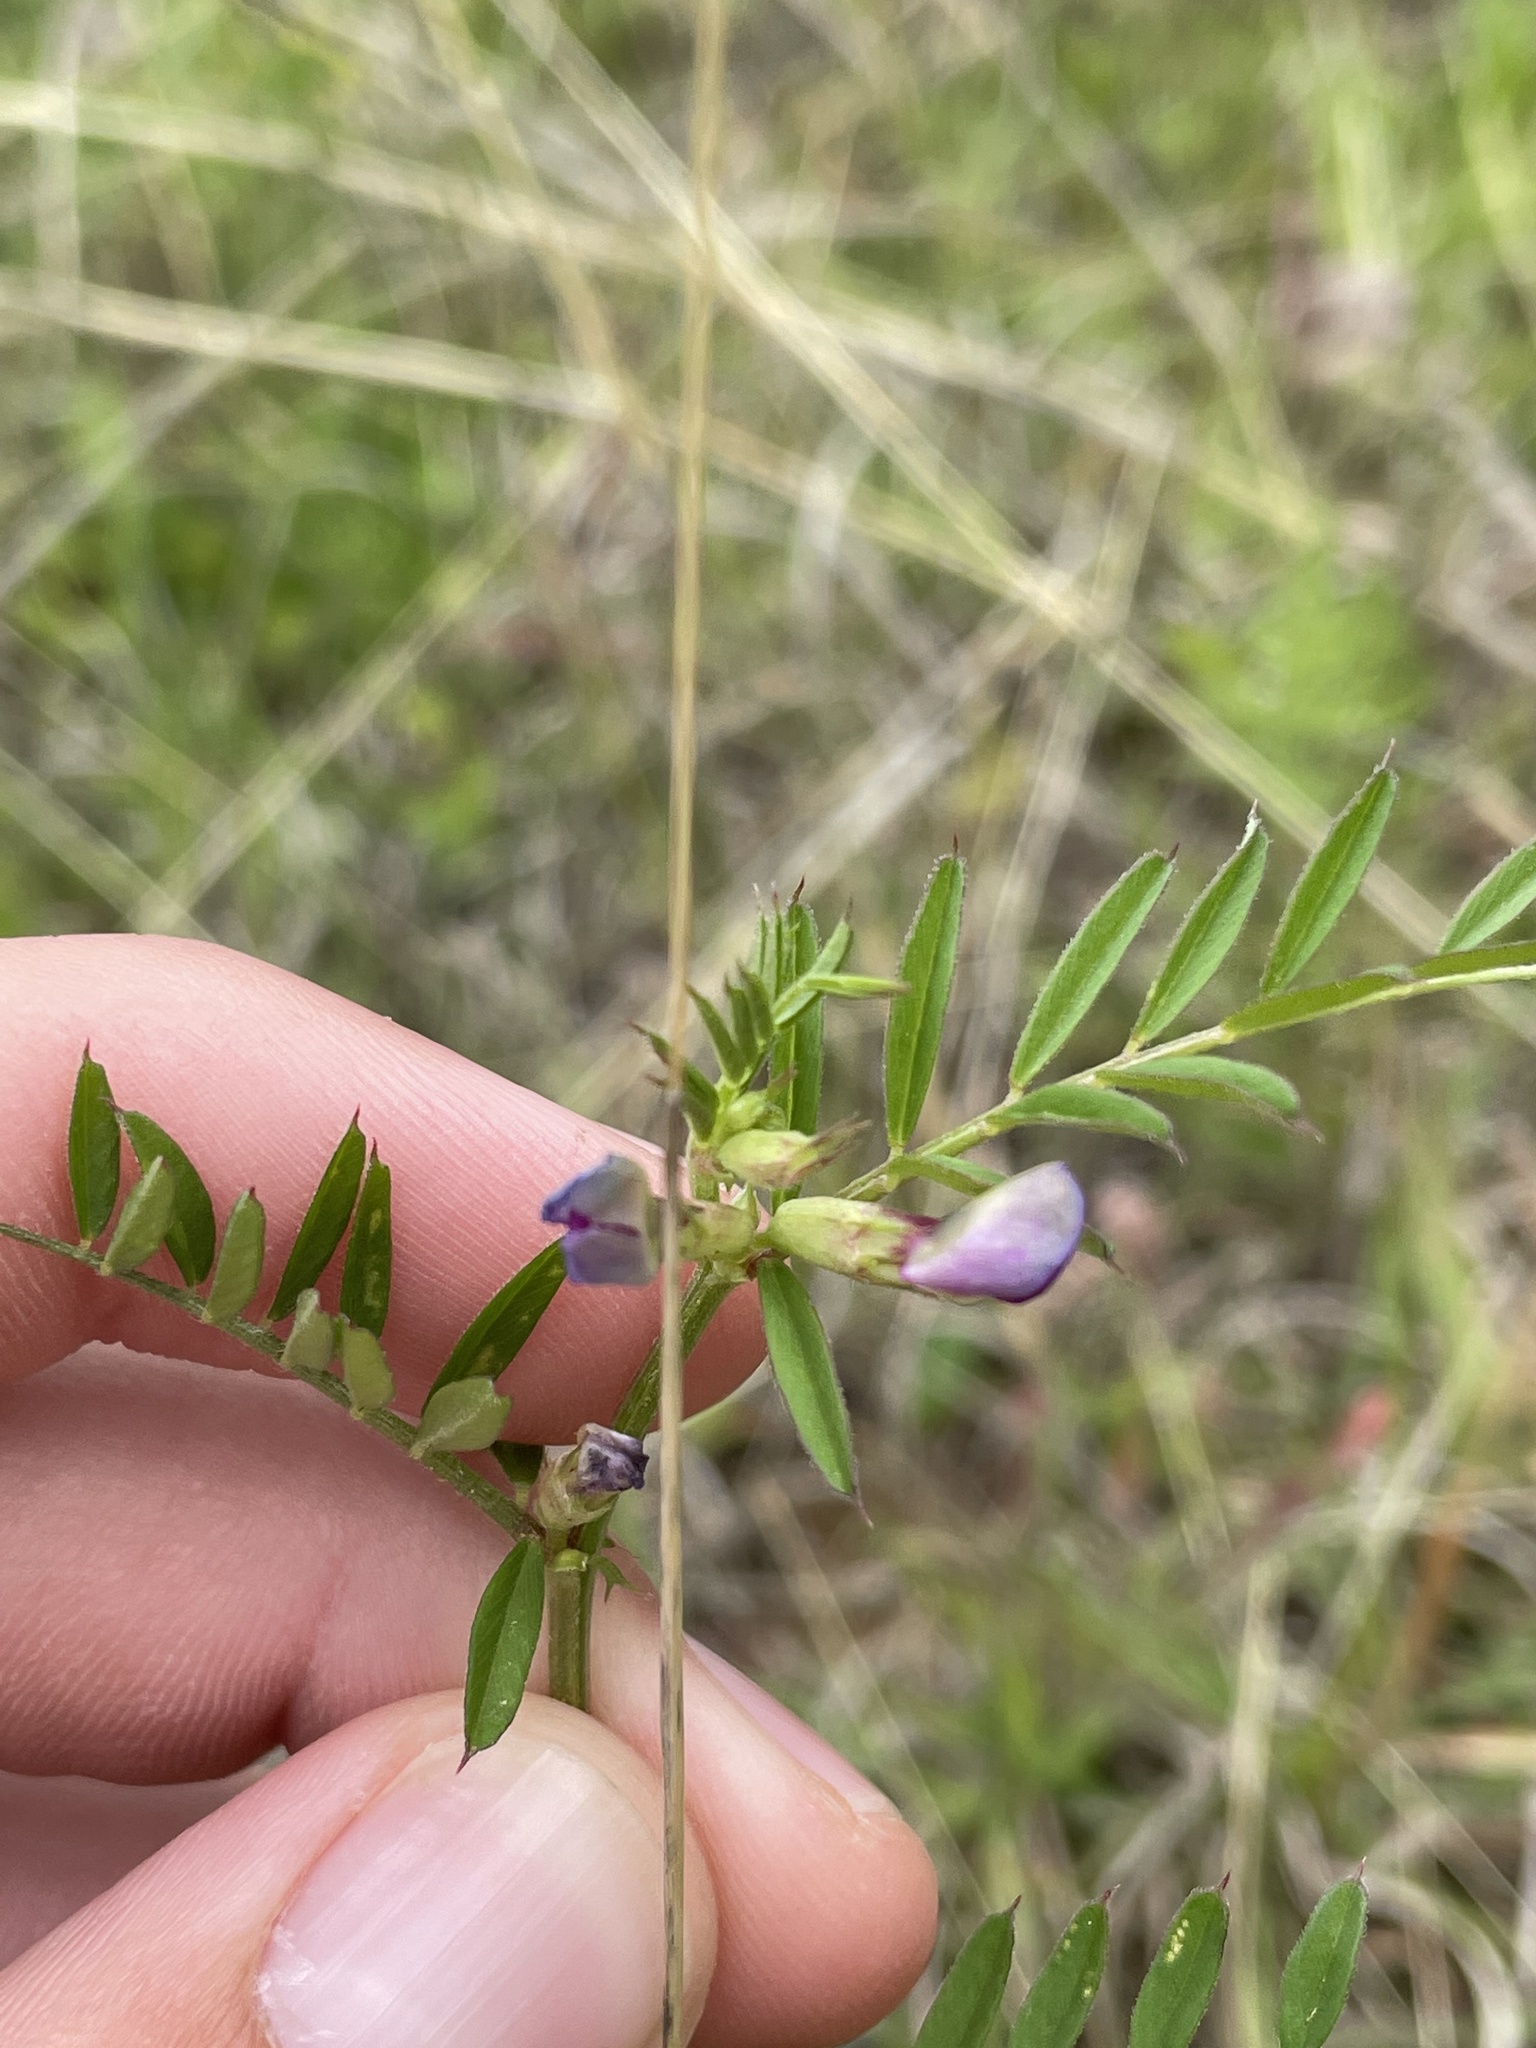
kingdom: Plantae
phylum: Tracheophyta
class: Magnoliopsida
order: Fabales
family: Fabaceae
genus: Vicia
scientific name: Vicia sativa
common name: Garden vetch
